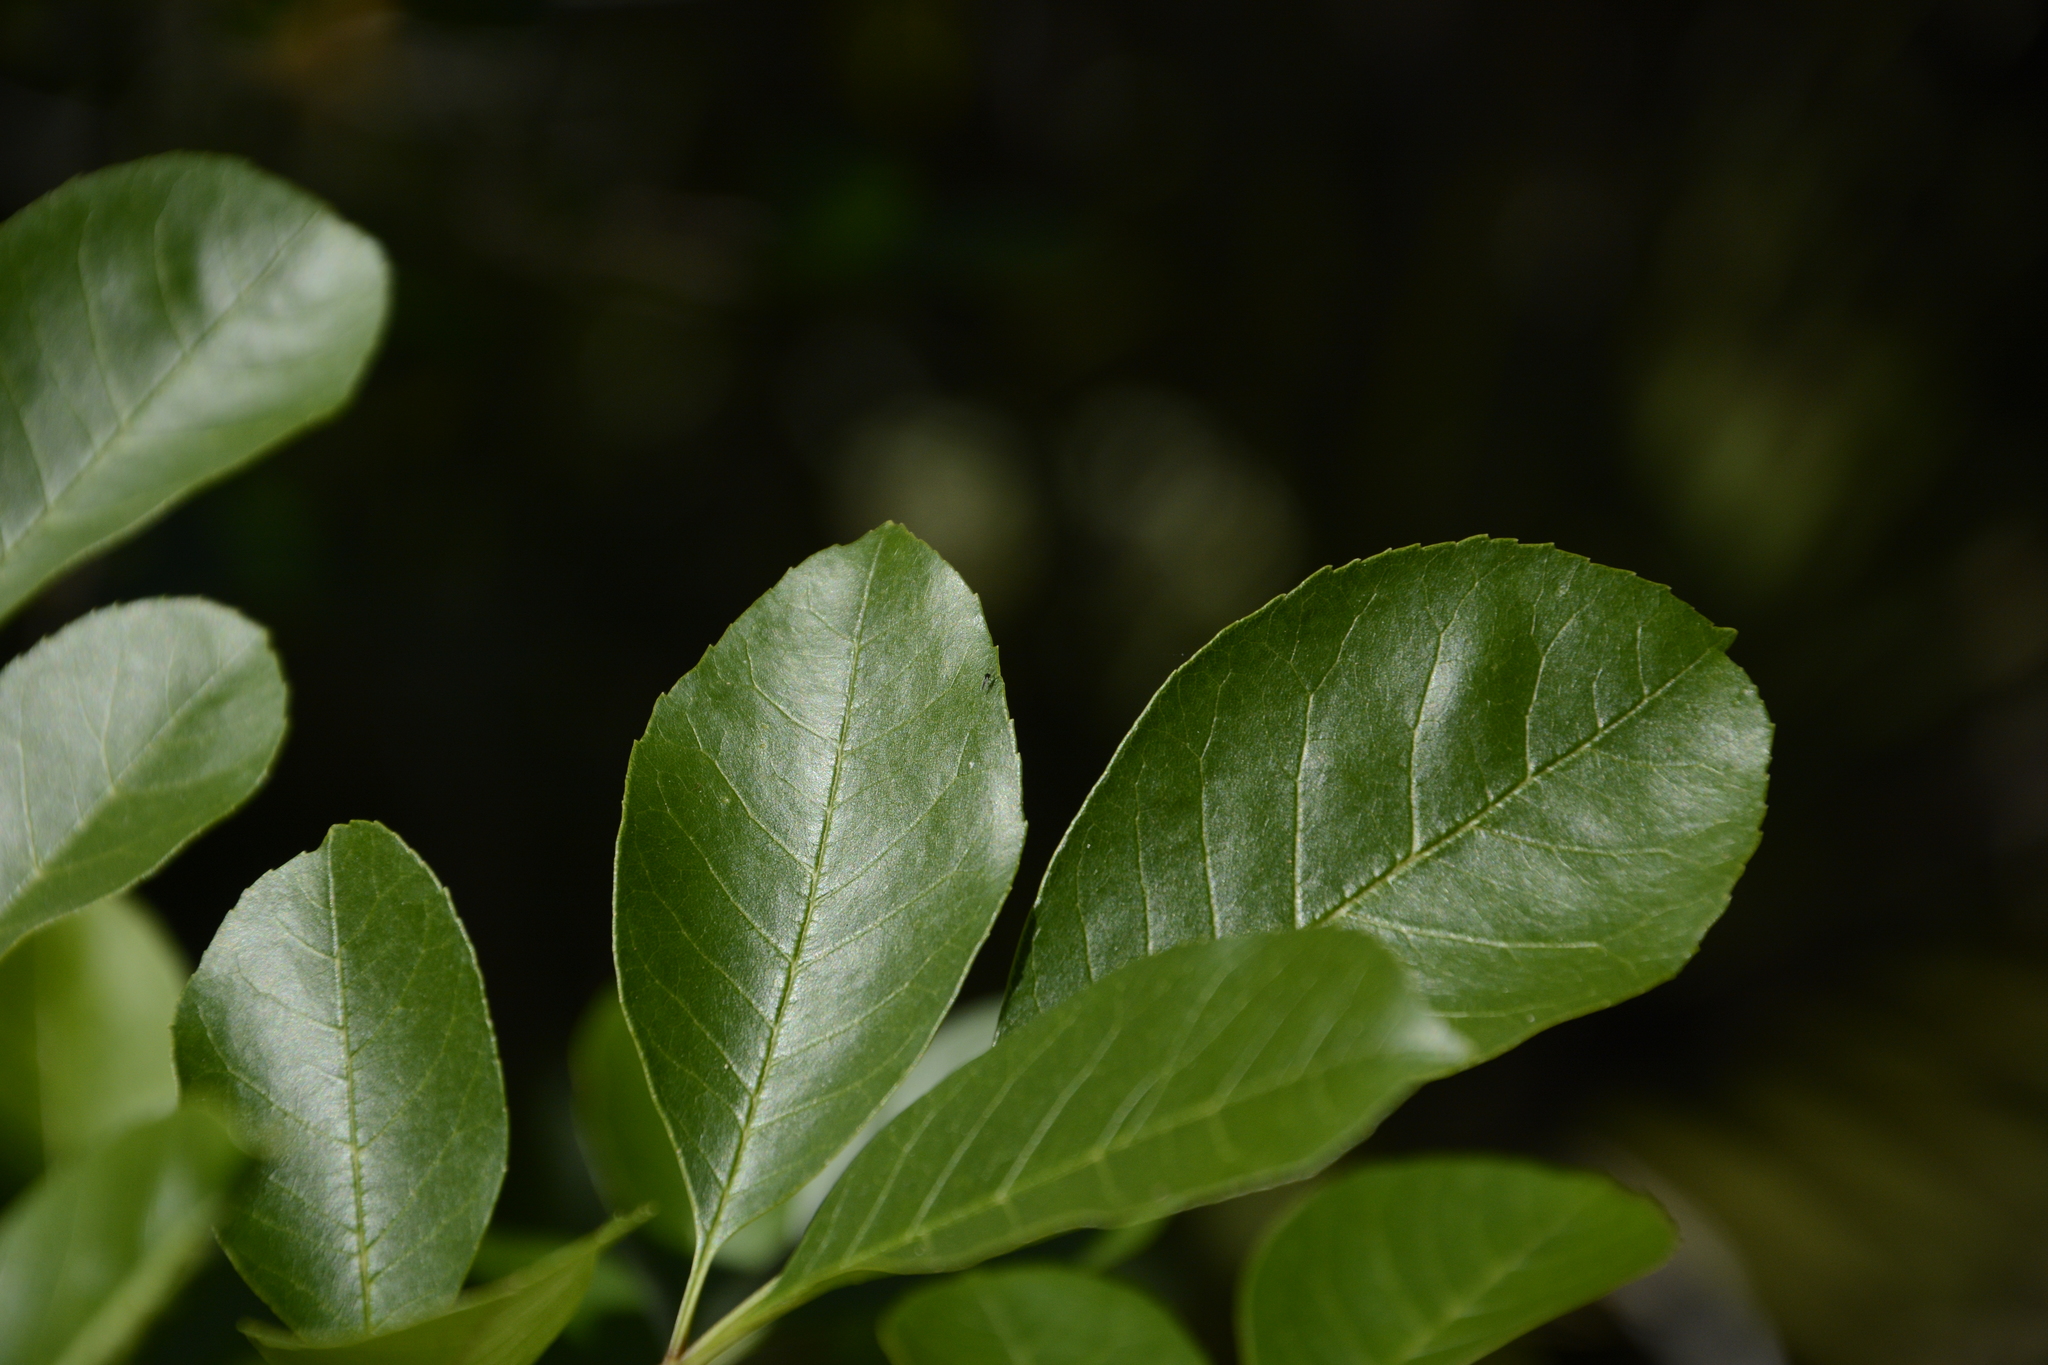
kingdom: Plantae
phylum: Tracheophyta
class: Magnoliopsida
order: Lamiales
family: Oleaceae
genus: Fraxinus
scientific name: Fraxinus caroliniana
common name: Carolina ash
